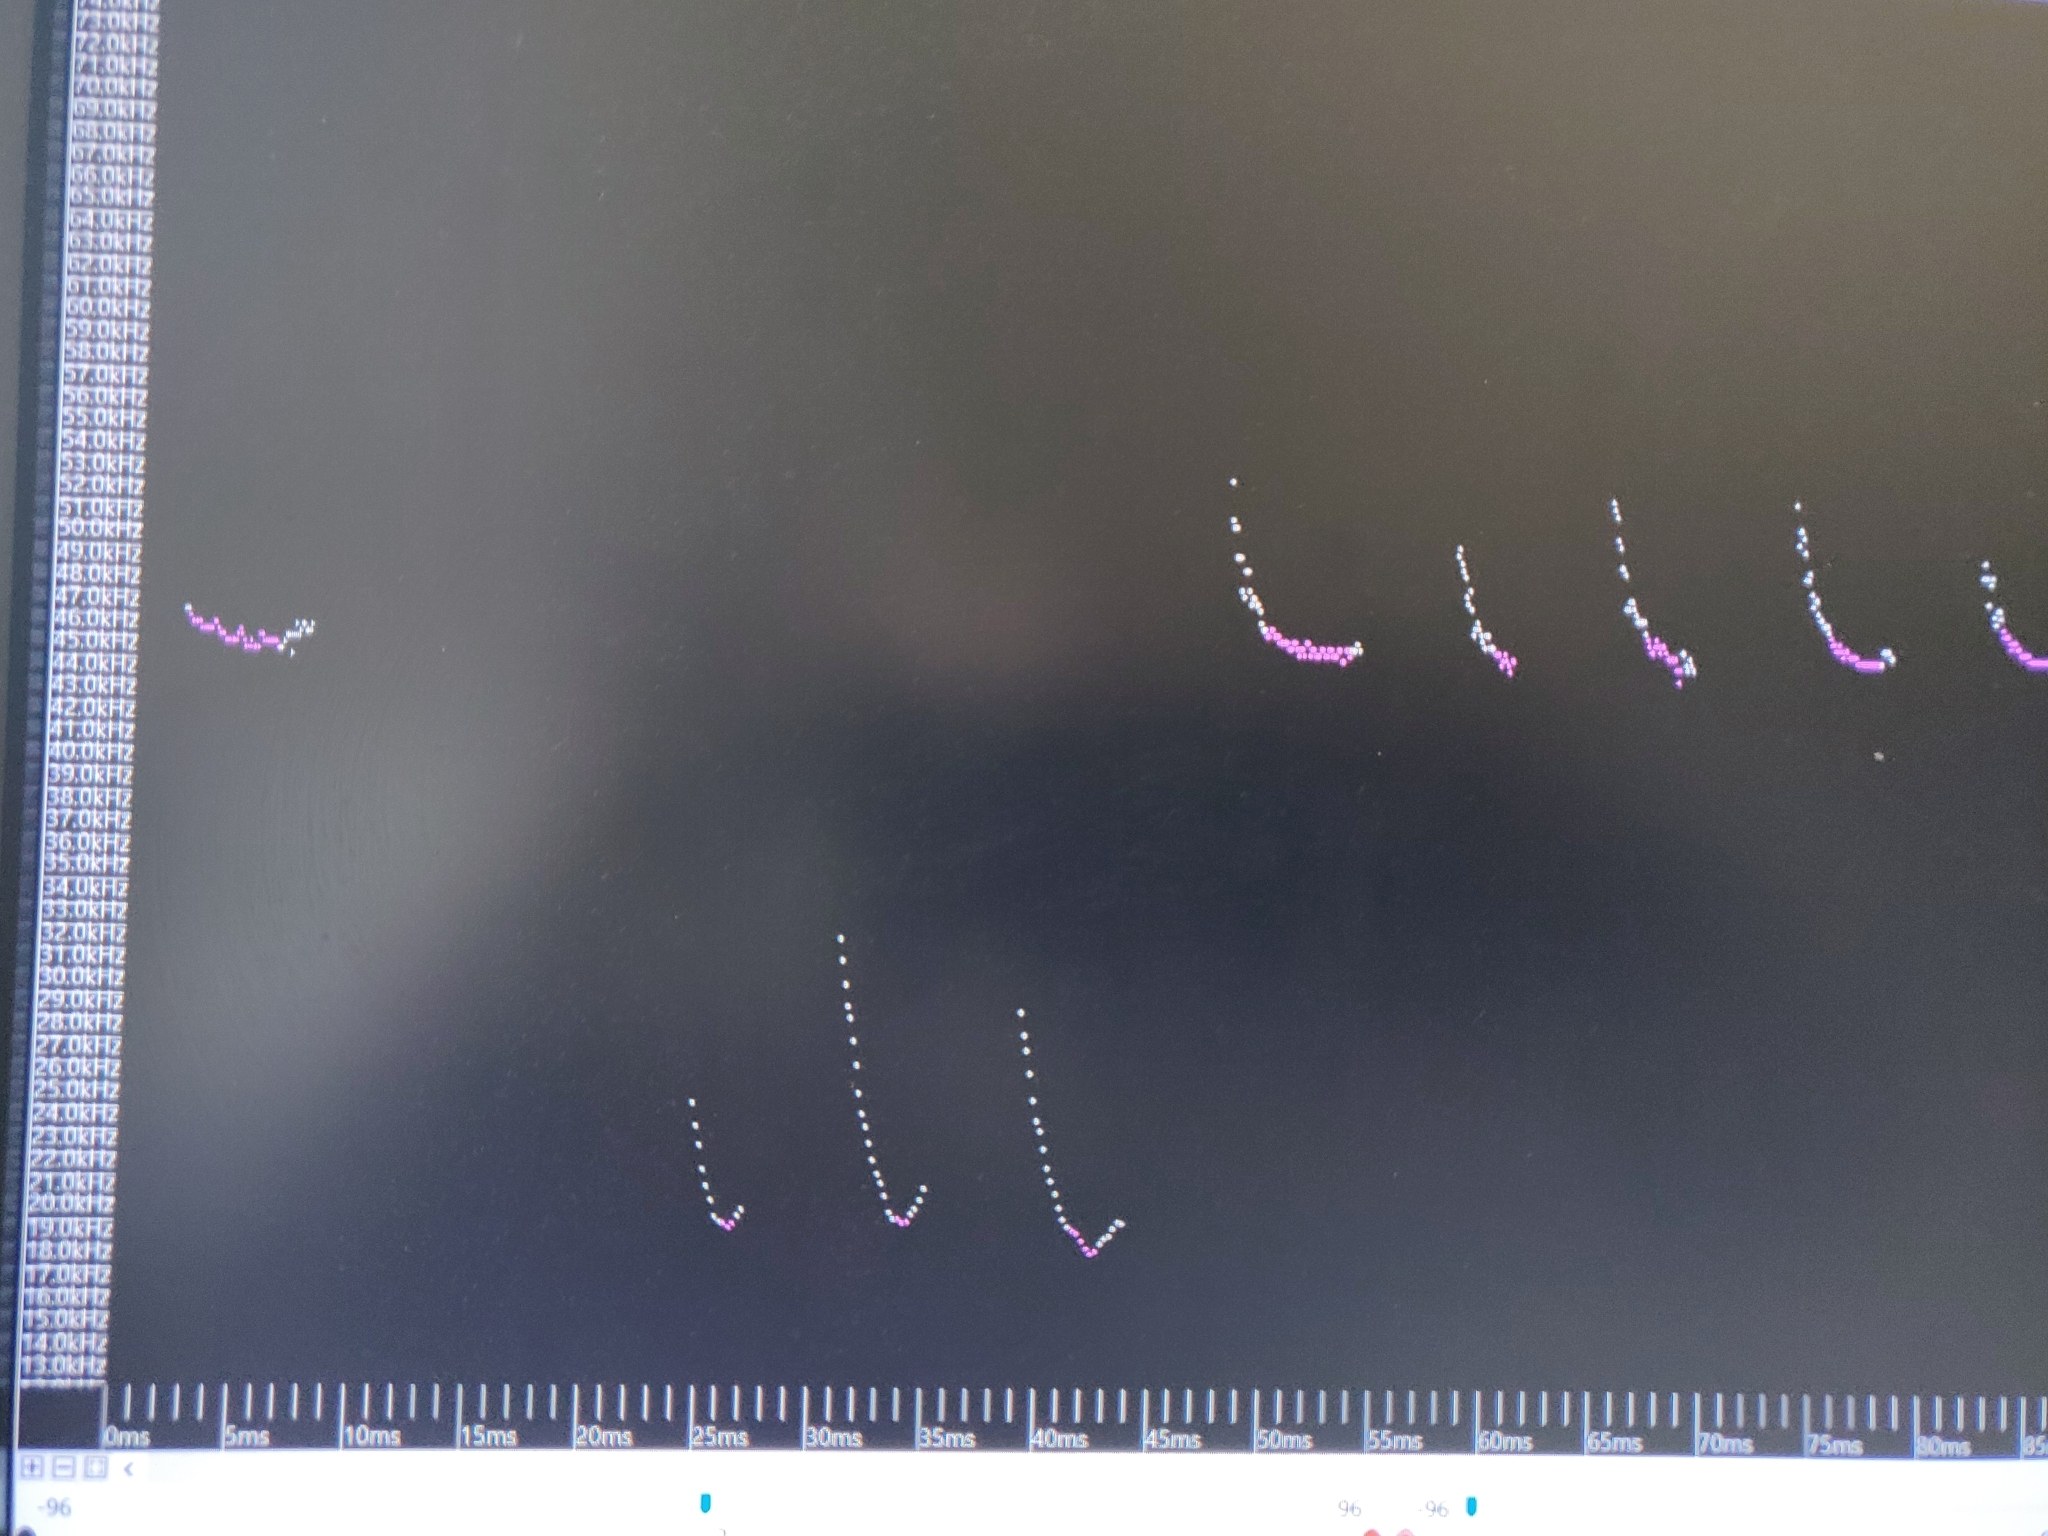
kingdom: Animalia
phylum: Chordata
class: Mammalia
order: Chiroptera
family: Vespertilionidae
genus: Pipistrellus
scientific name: Pipistrellus pipistrellus
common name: Common pipistrelle
